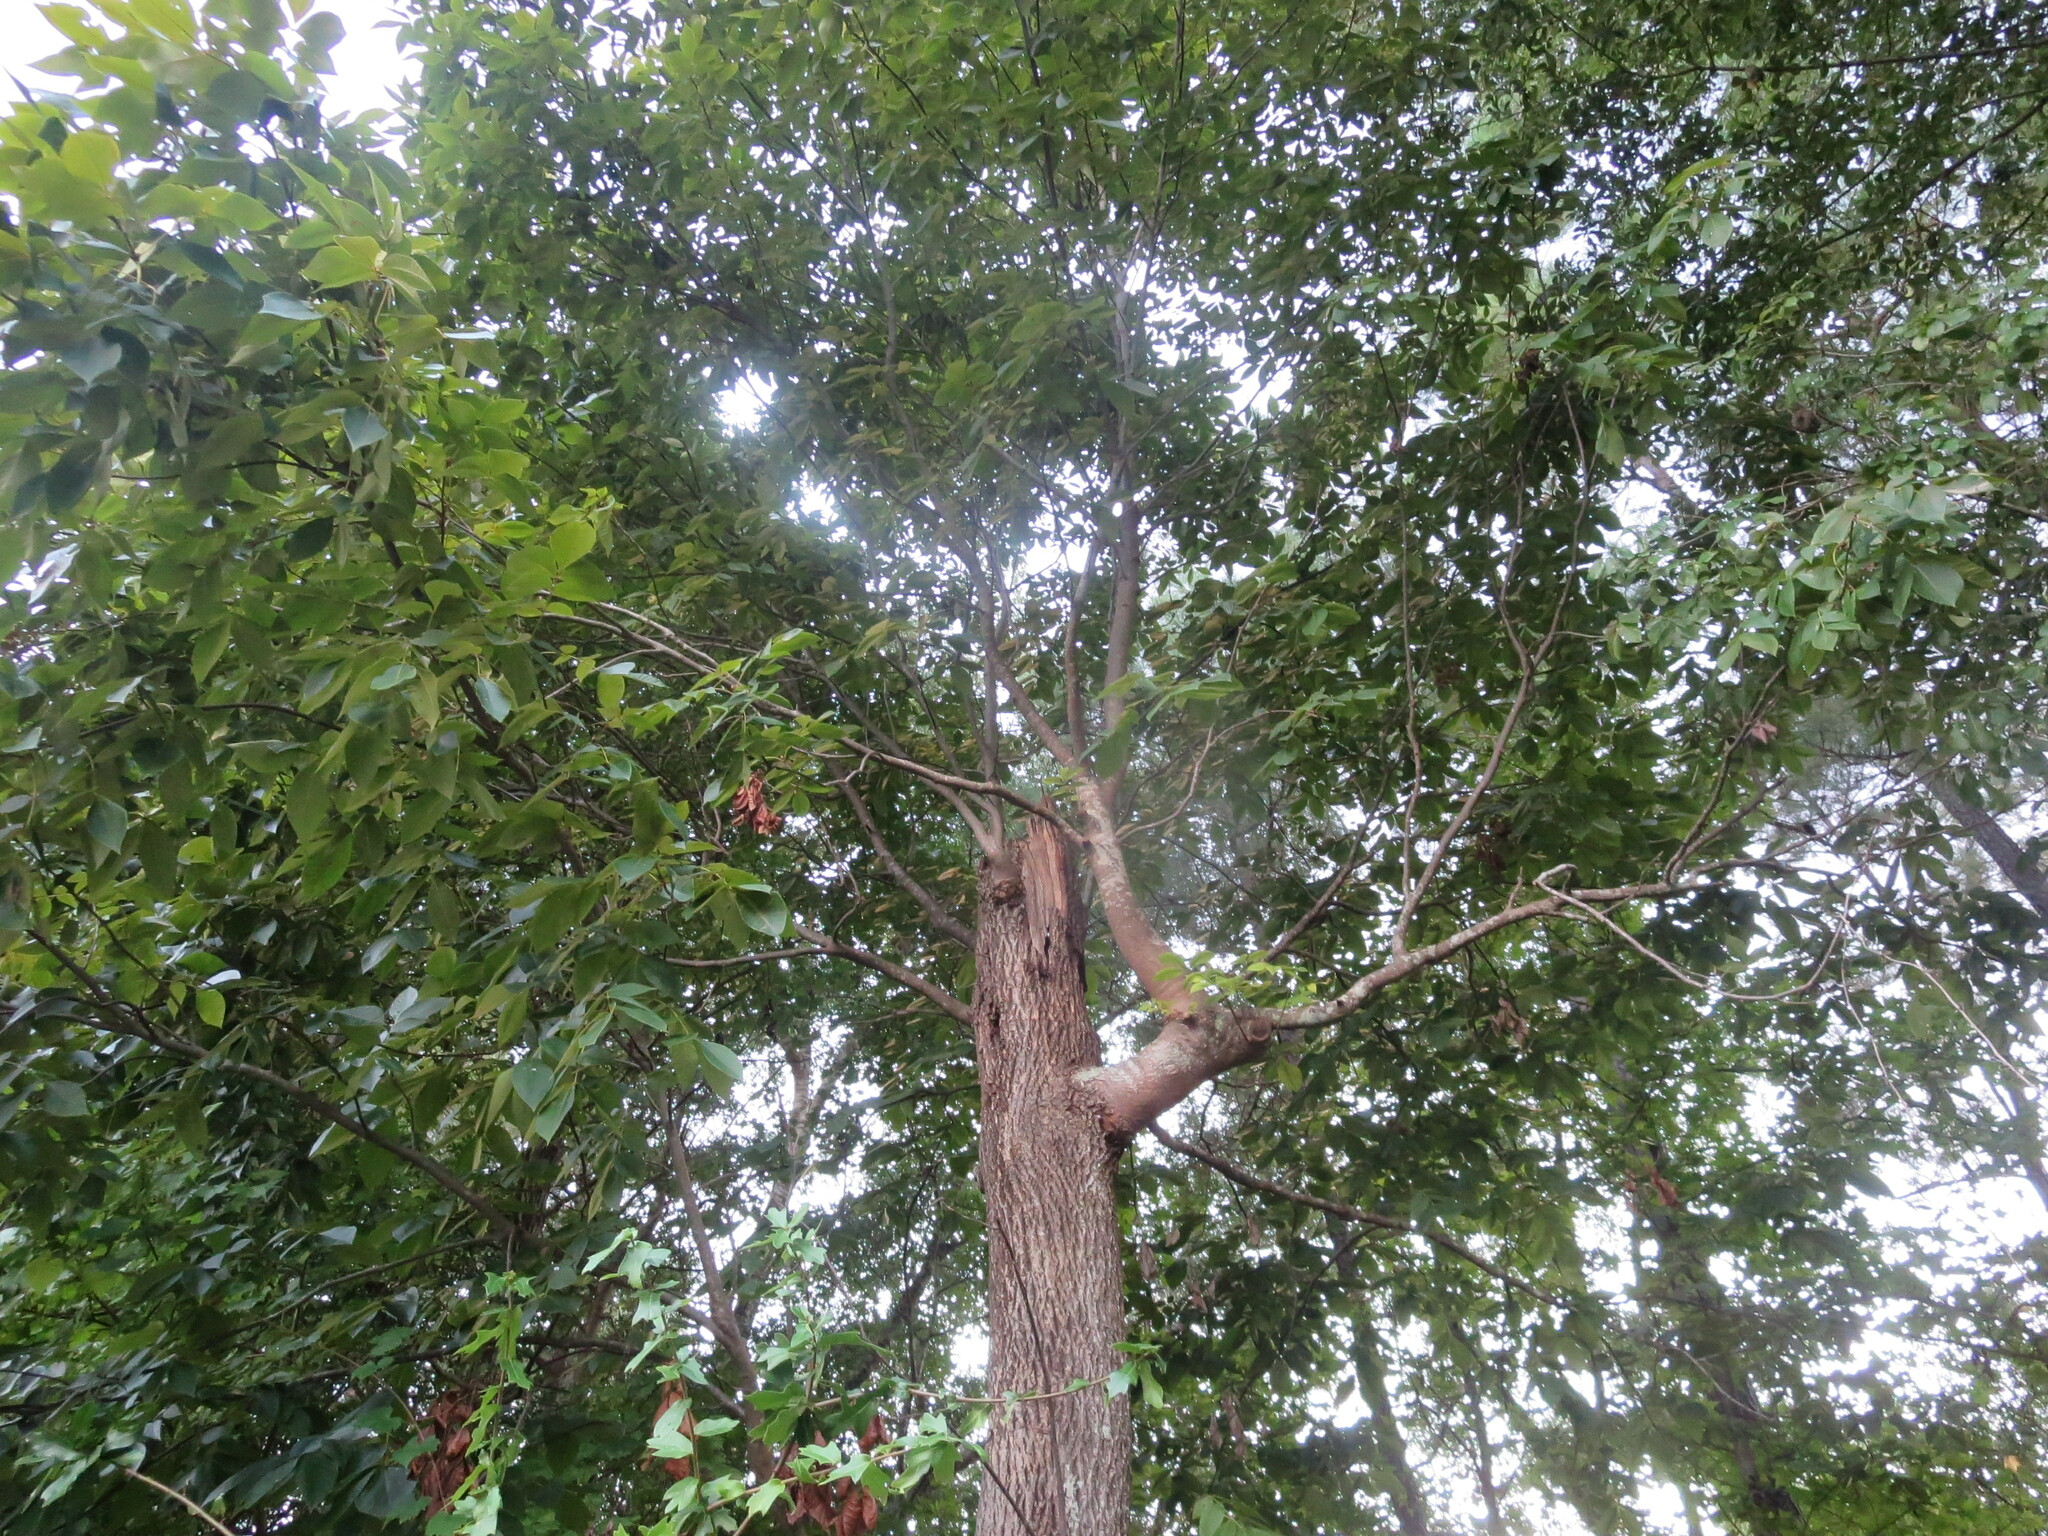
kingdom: Plantae
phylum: Tracheophyta
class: Magnoliopsida
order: Fagales
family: Juglandaceae
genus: Carya
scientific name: Carya alba
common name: Mockernut hickory
